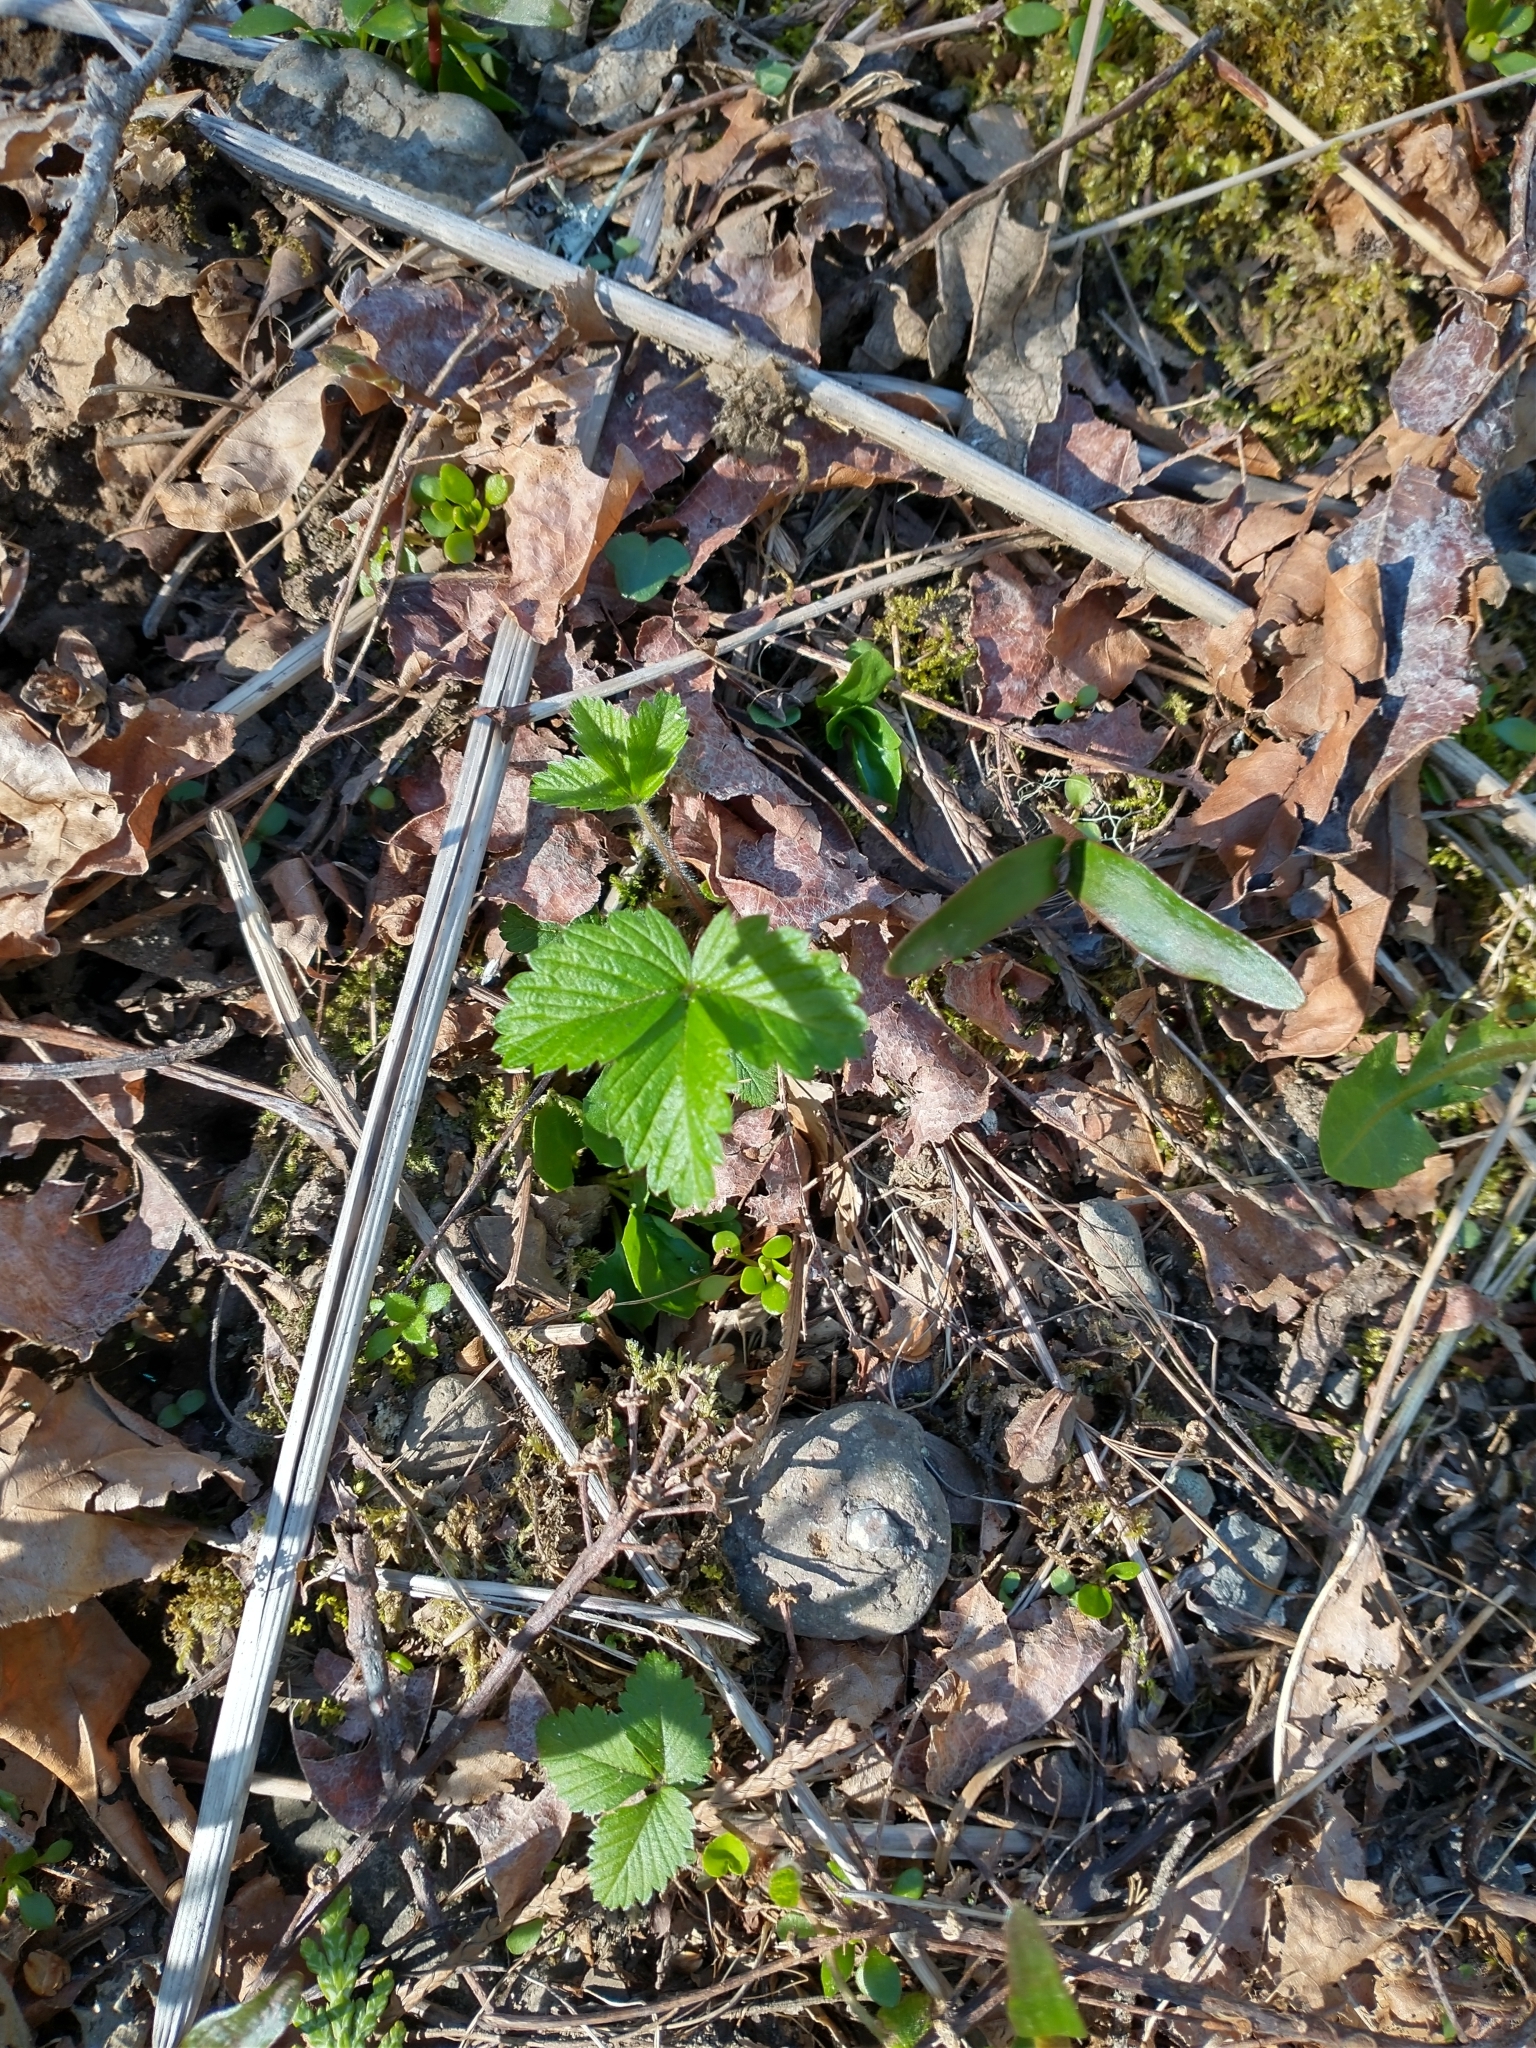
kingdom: Plantae
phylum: Tracheophyta
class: Magnoliopsida
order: Rosales
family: Rosaceae
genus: Fragaria
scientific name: Fragaria vesca
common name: Wild strawberry
